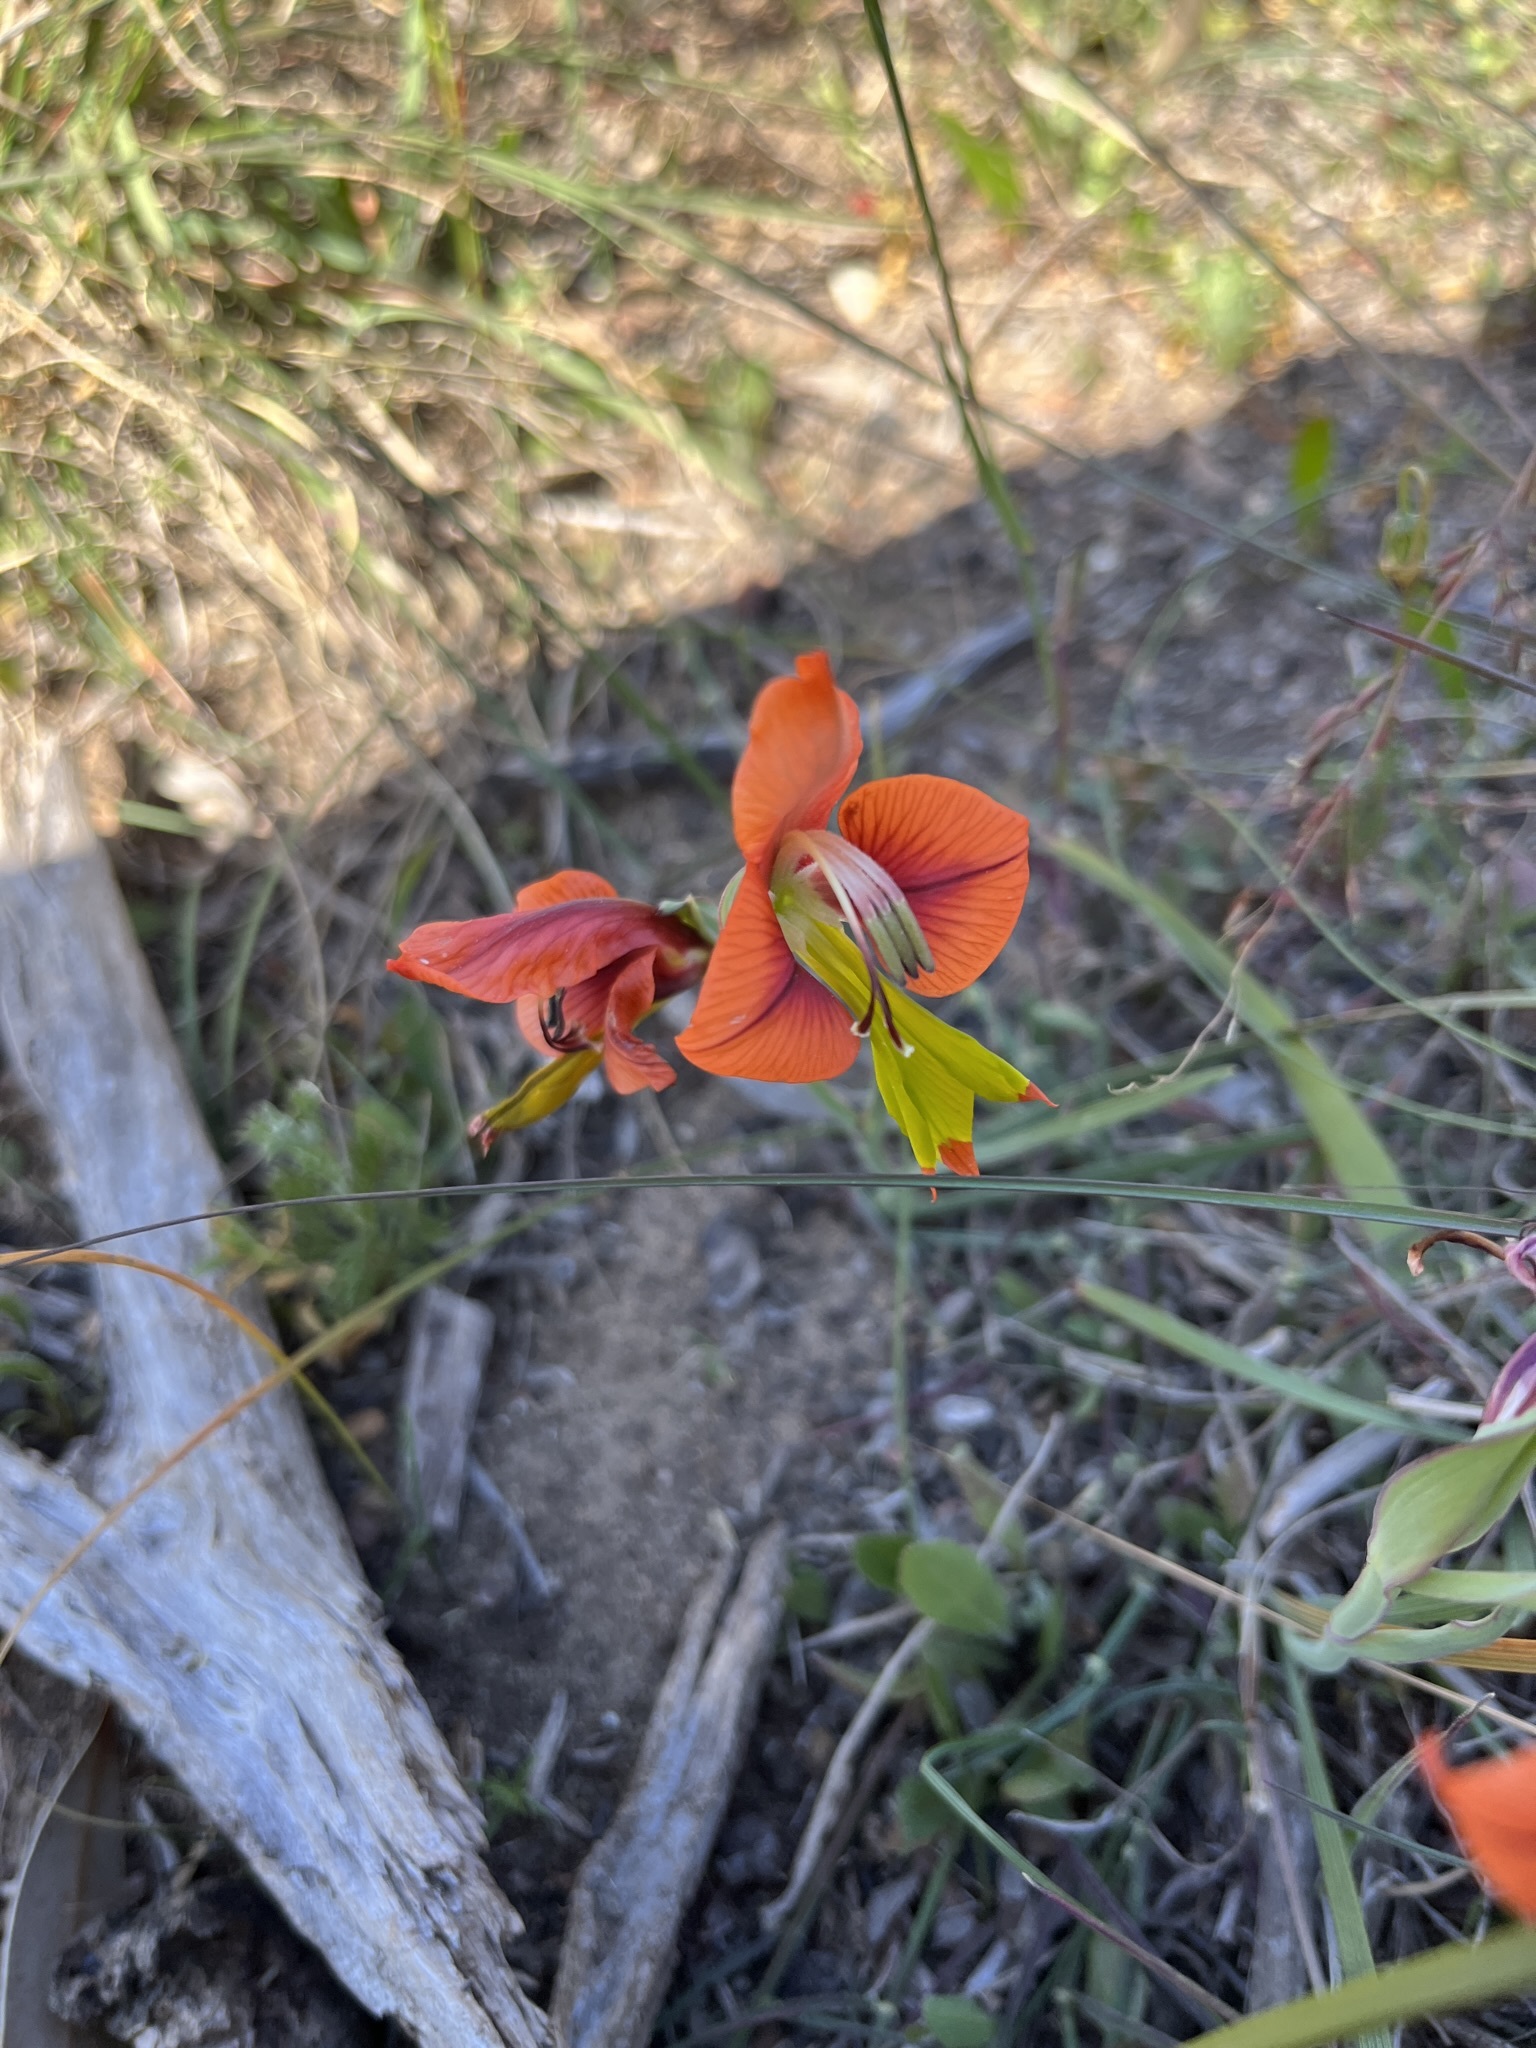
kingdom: Plantae
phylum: Tracheophyta
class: Liliopsida
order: Asparagales
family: Iridaceae
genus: Gladiolus
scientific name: Gladiolus alatus
